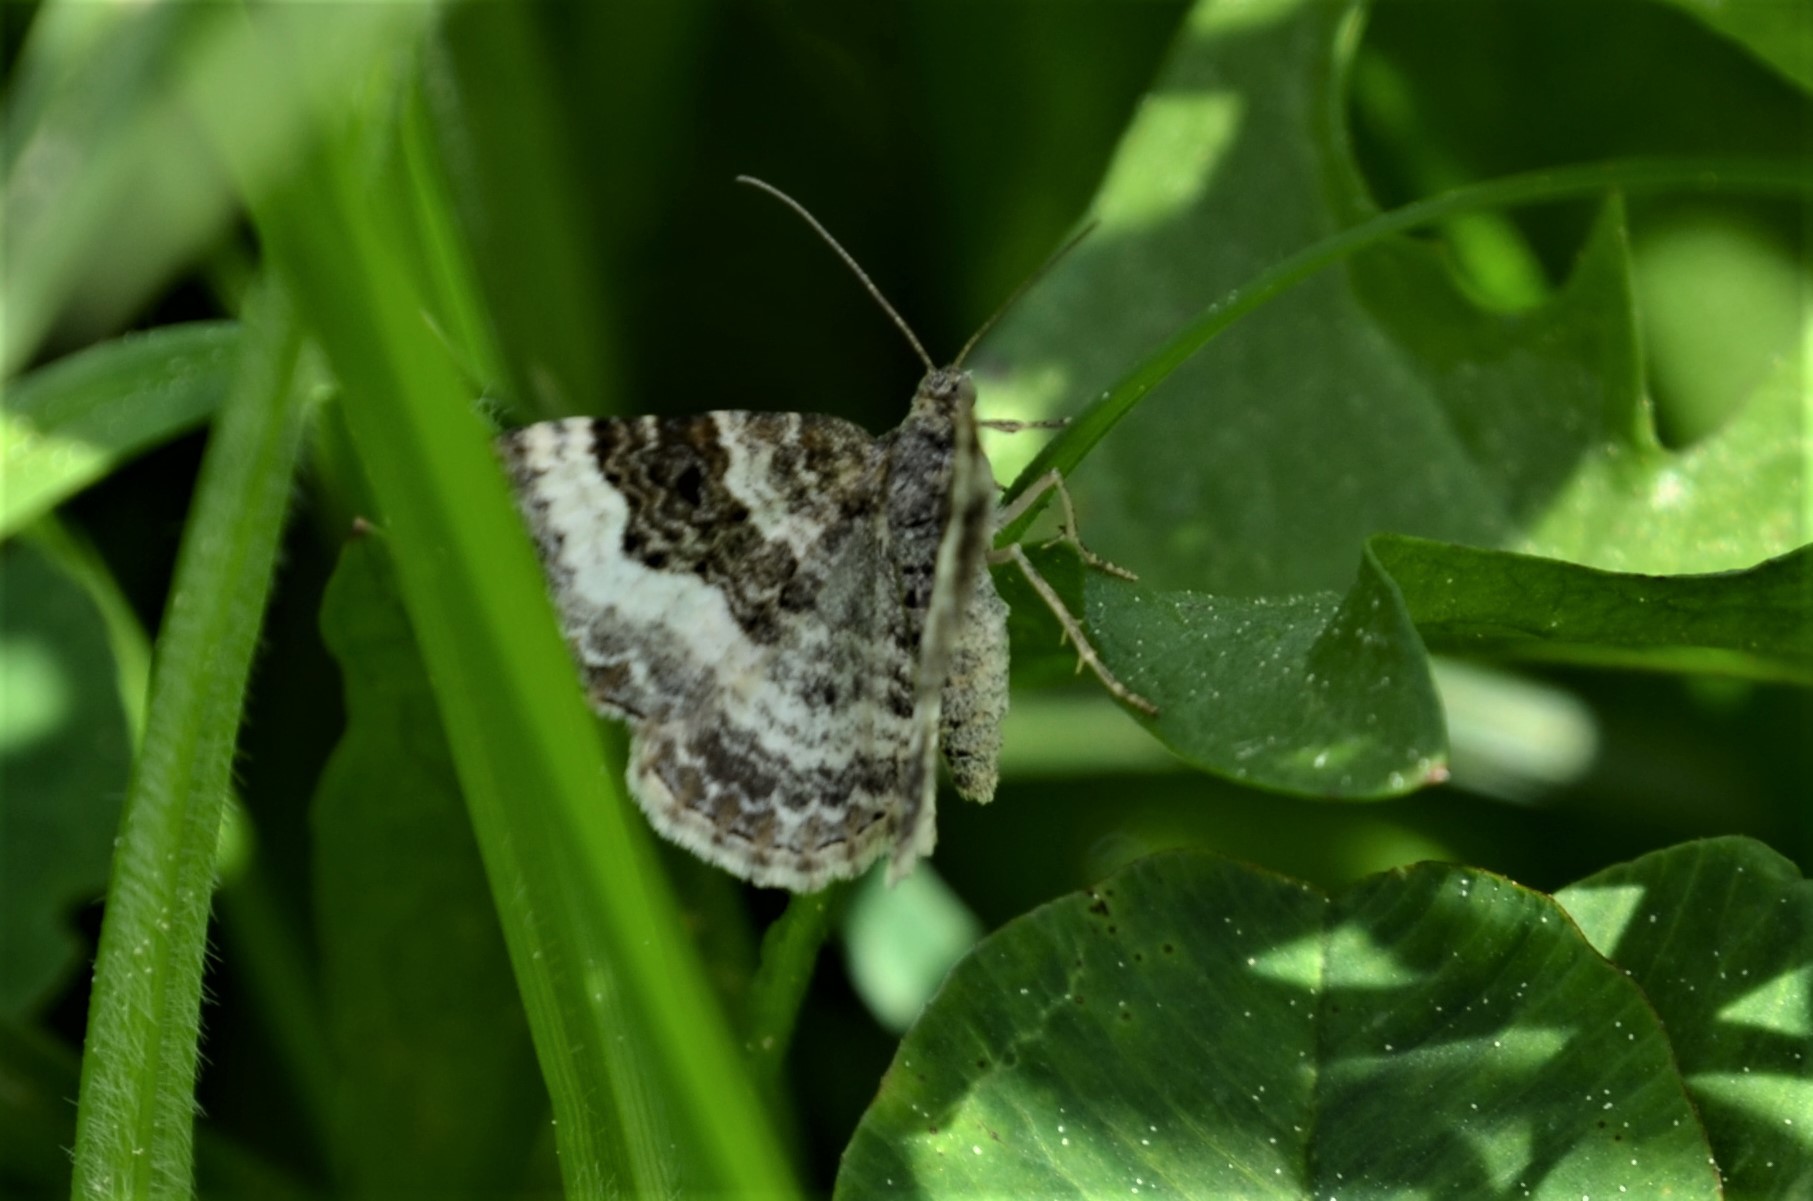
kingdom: Animalia
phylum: Arthropoda
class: Insecta
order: Lepidoptera
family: Geometridae
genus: Epirrhoe
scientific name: Epirrhoe alternata
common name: Common carpet
